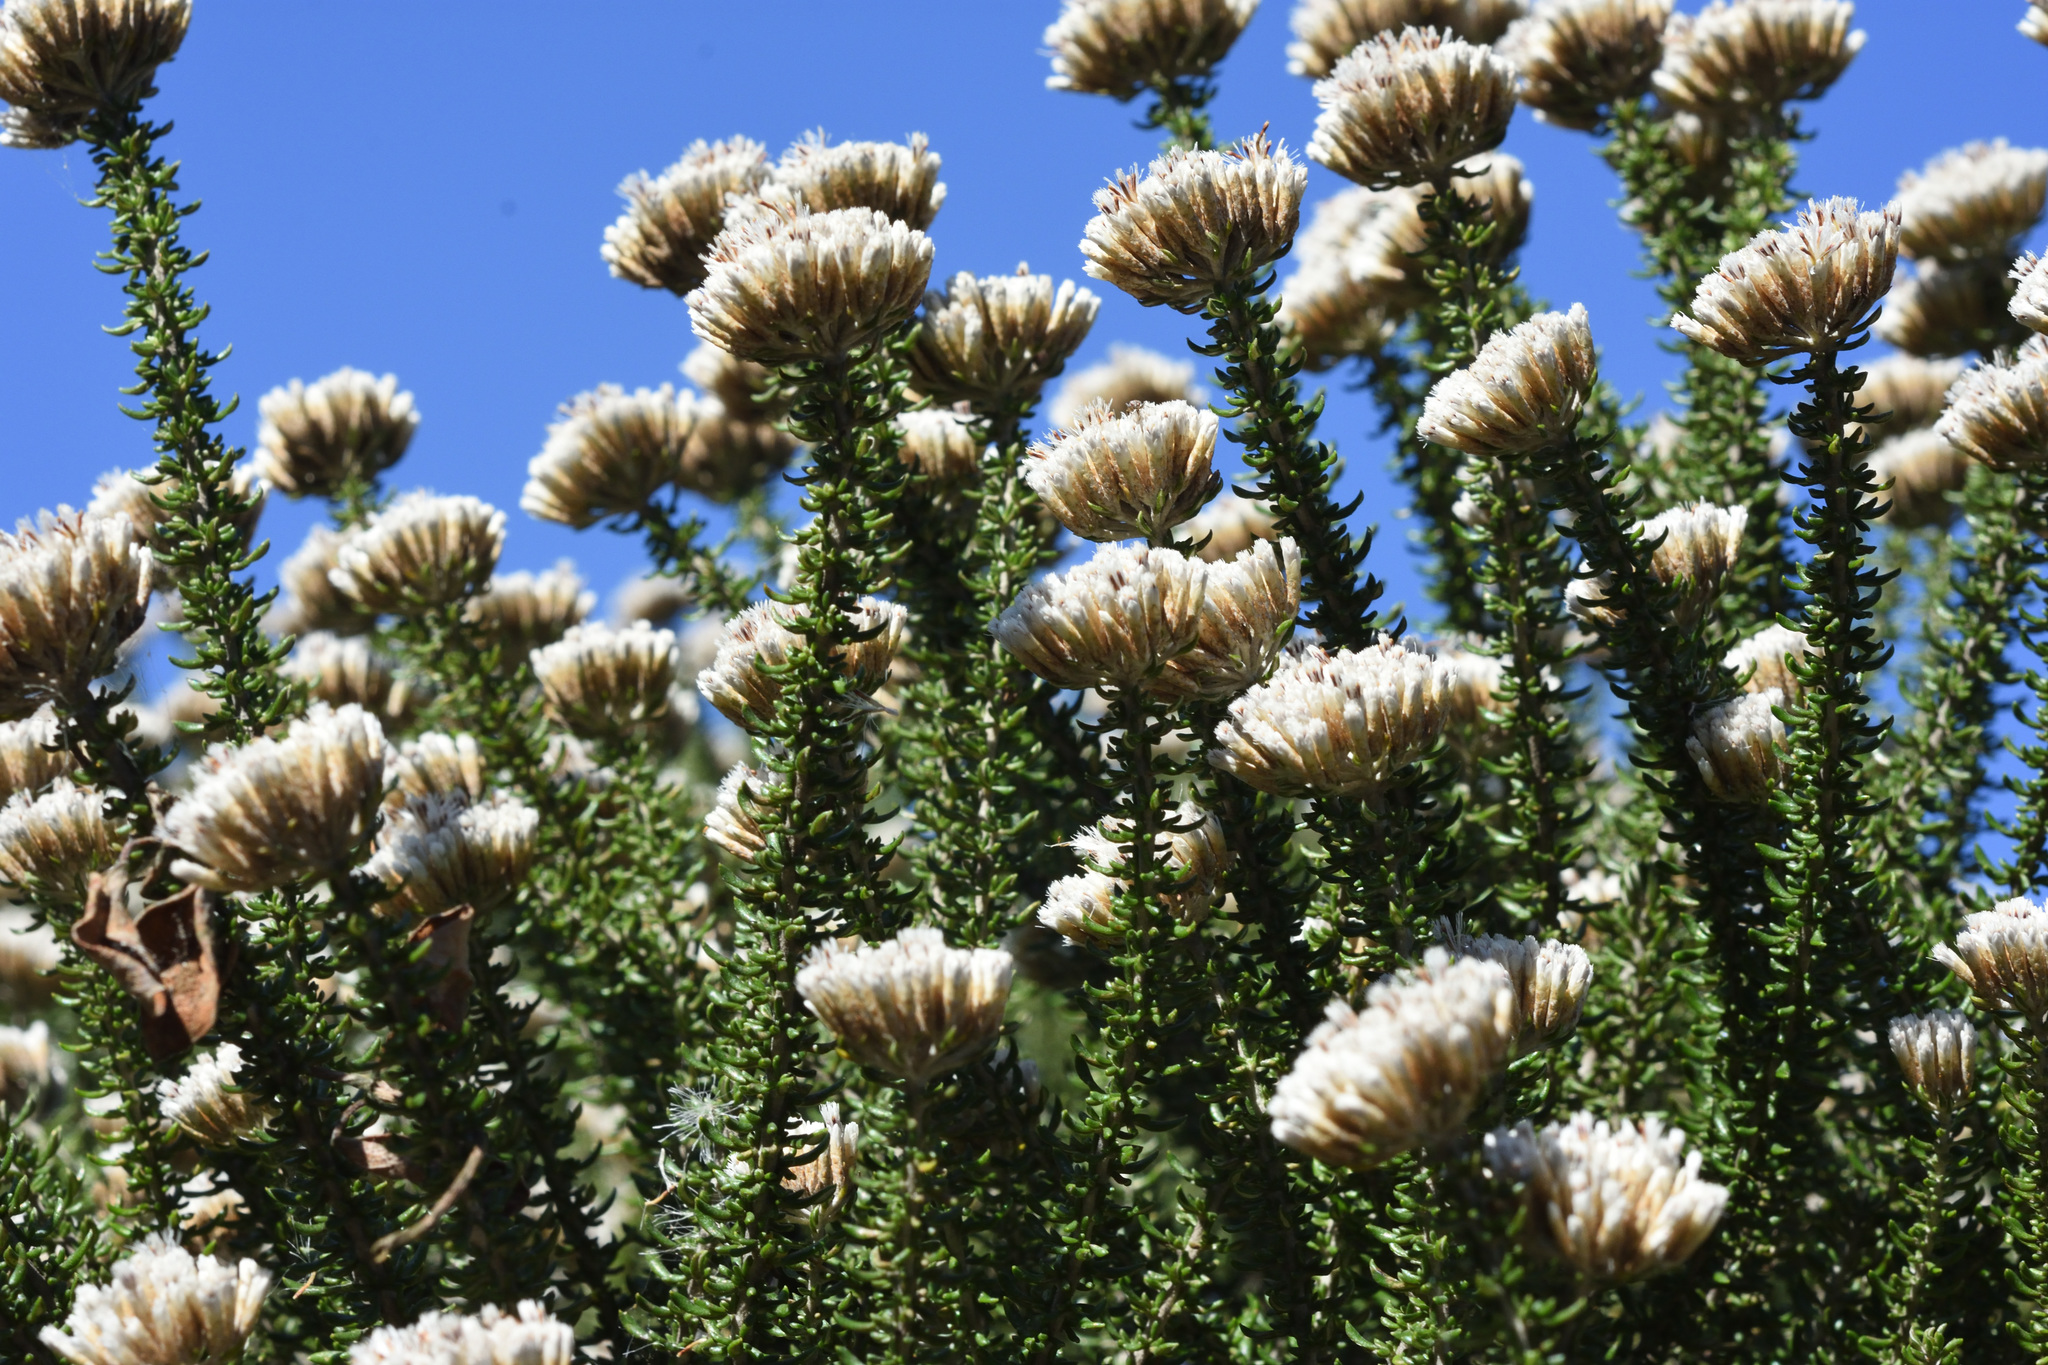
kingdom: Plantae
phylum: Tracheophyta
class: Magnoliopsida
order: Asterales
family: Asteraceae
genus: Metalasia
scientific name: Metalasia muricata
